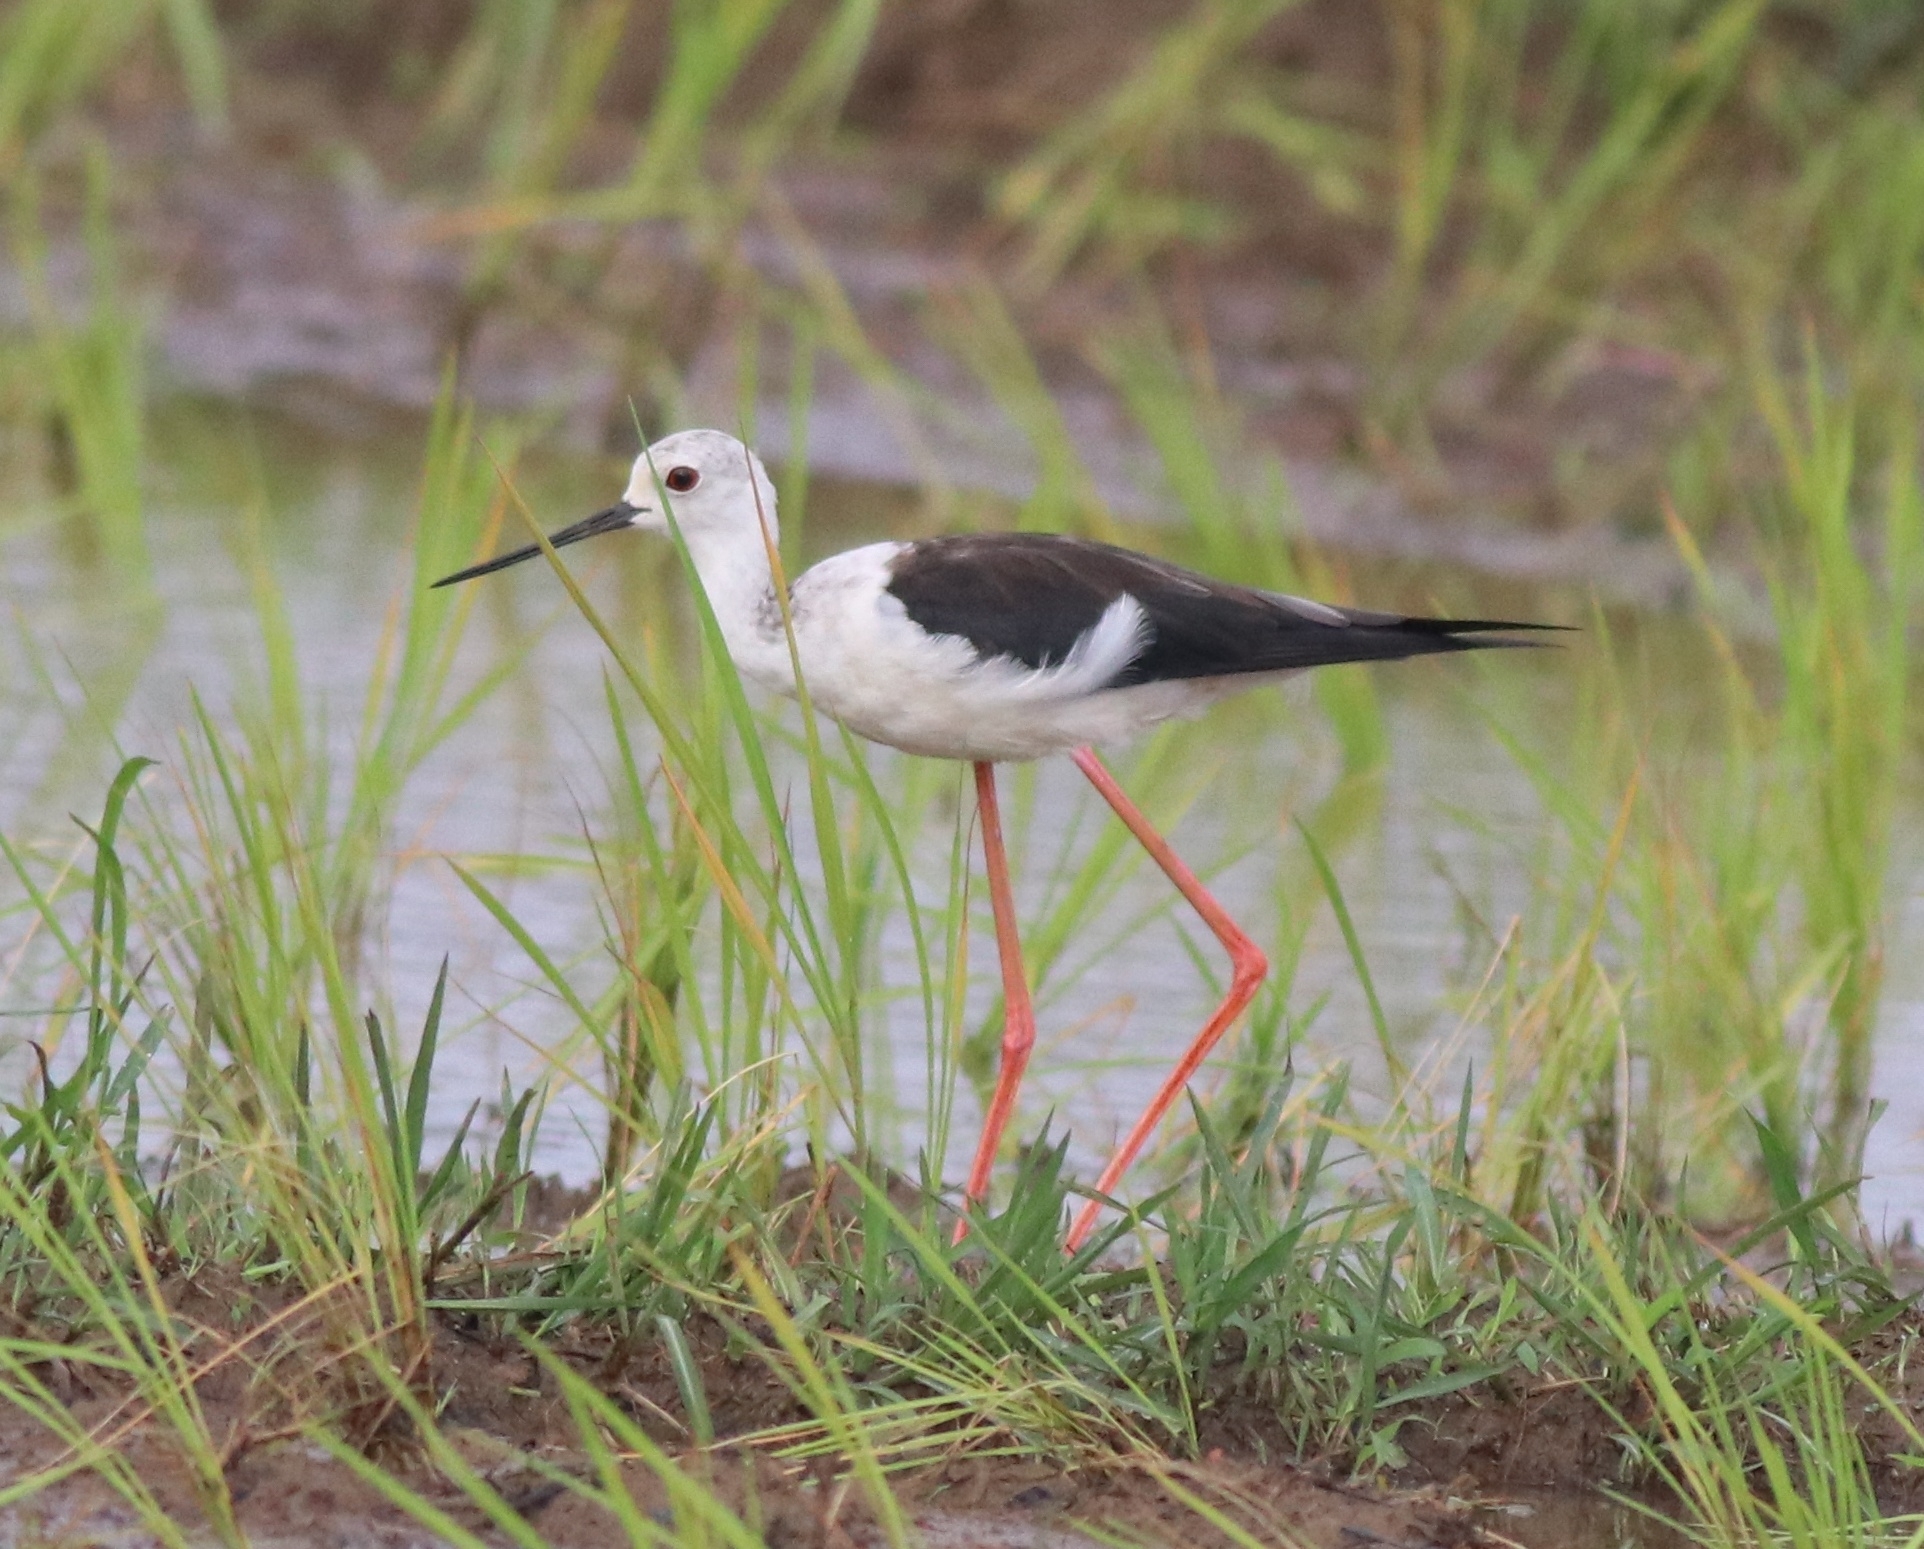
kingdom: Animalia
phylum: Chordata
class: Aves
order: Charadriiformes
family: Recurvirostridae
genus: Himantopus
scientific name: Himantopus himantopus
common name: Black-winged stilt
